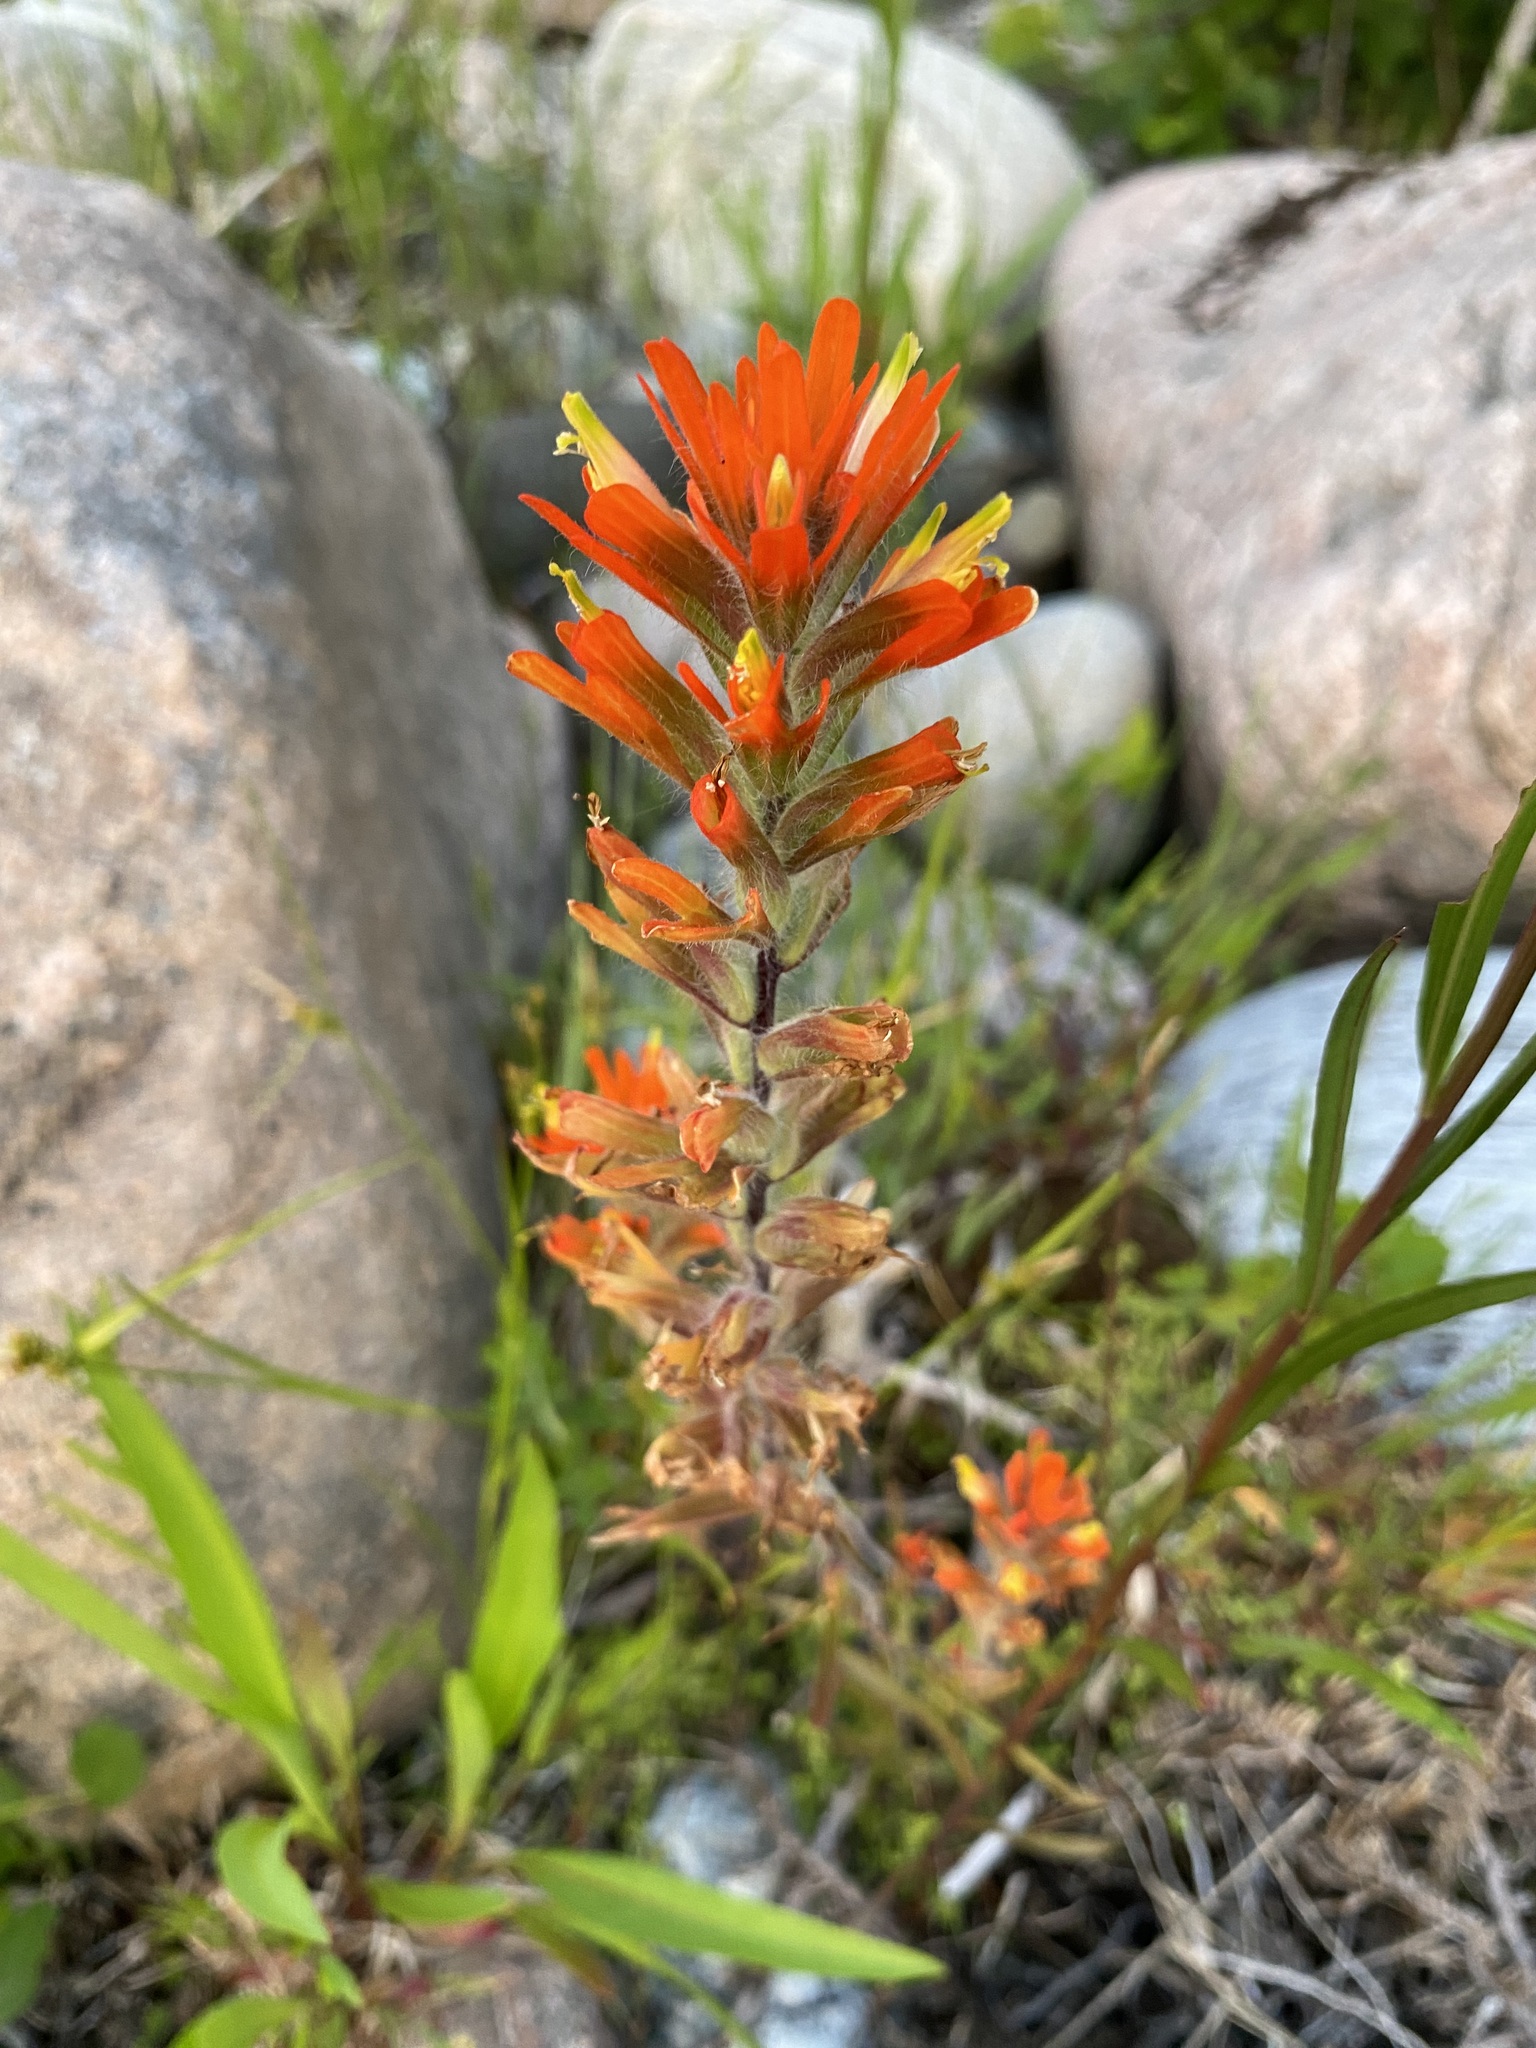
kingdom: Plantae
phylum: Tracheophyta
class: Magnoliopsida
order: Lamiales
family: Orobanchaceae
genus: Castilleja
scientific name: Castilleja coccinea
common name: Scarlet paintbrush
